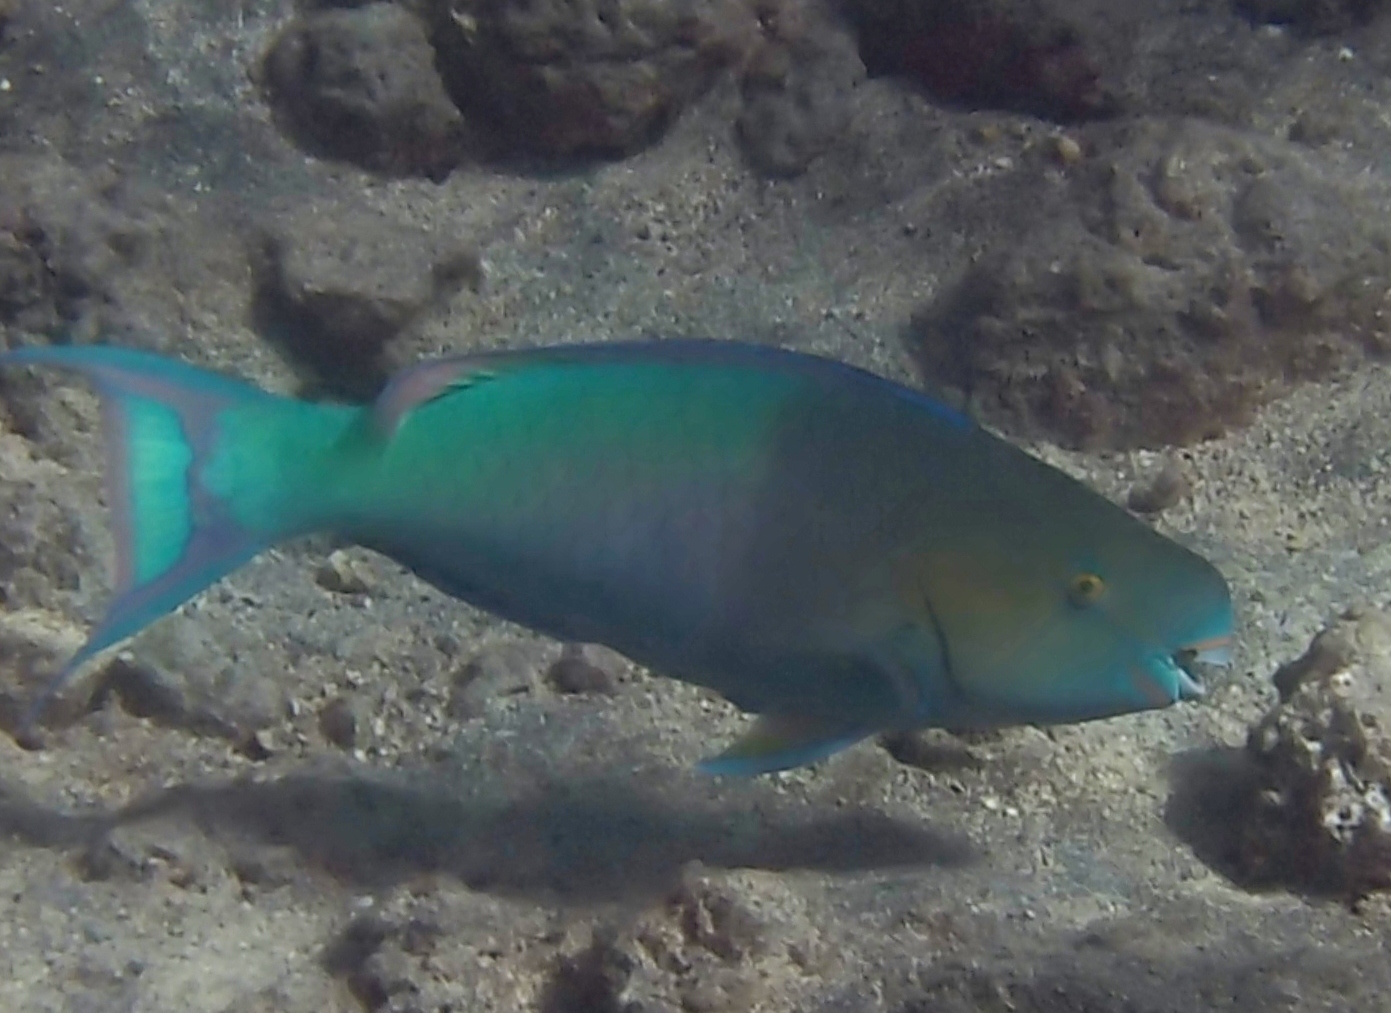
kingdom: Animalia
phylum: Chordata
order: Perciformes
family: Scaridae
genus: Scarus
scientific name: Scarus rubroviolaceus
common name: Ember parrotfish
